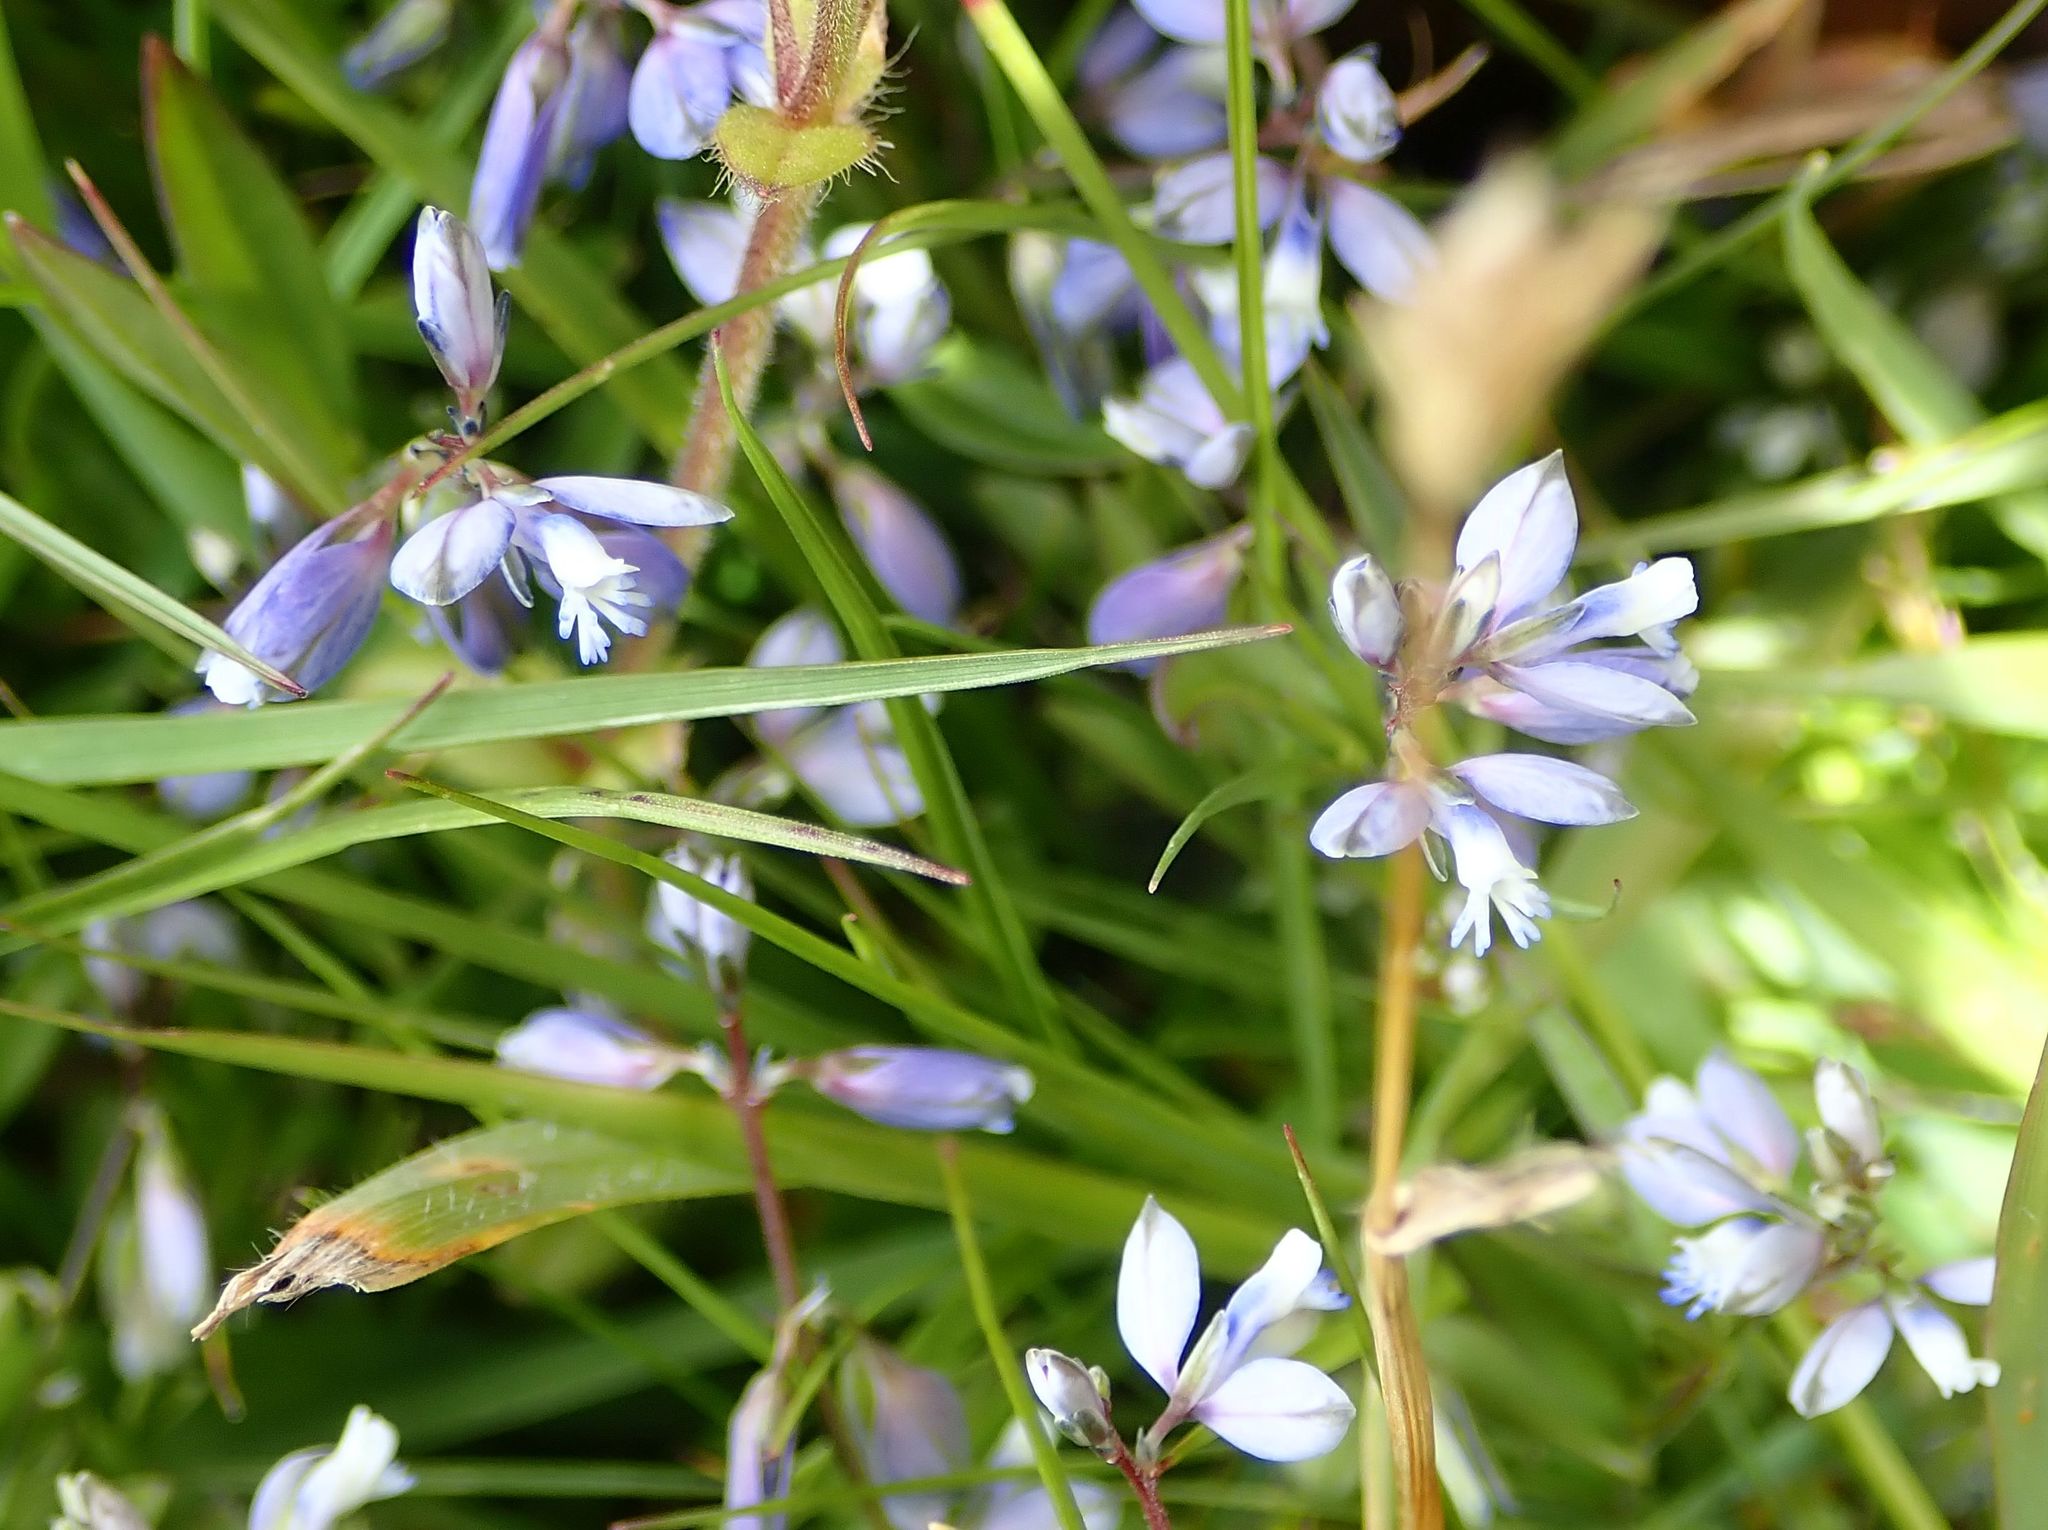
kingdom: Plantae
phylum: Tracheophyta
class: Magnoliopsida
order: Fabales
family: Polygalaceae
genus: Polygala
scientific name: Polygala serpyllifolia
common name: Heath milkwort
